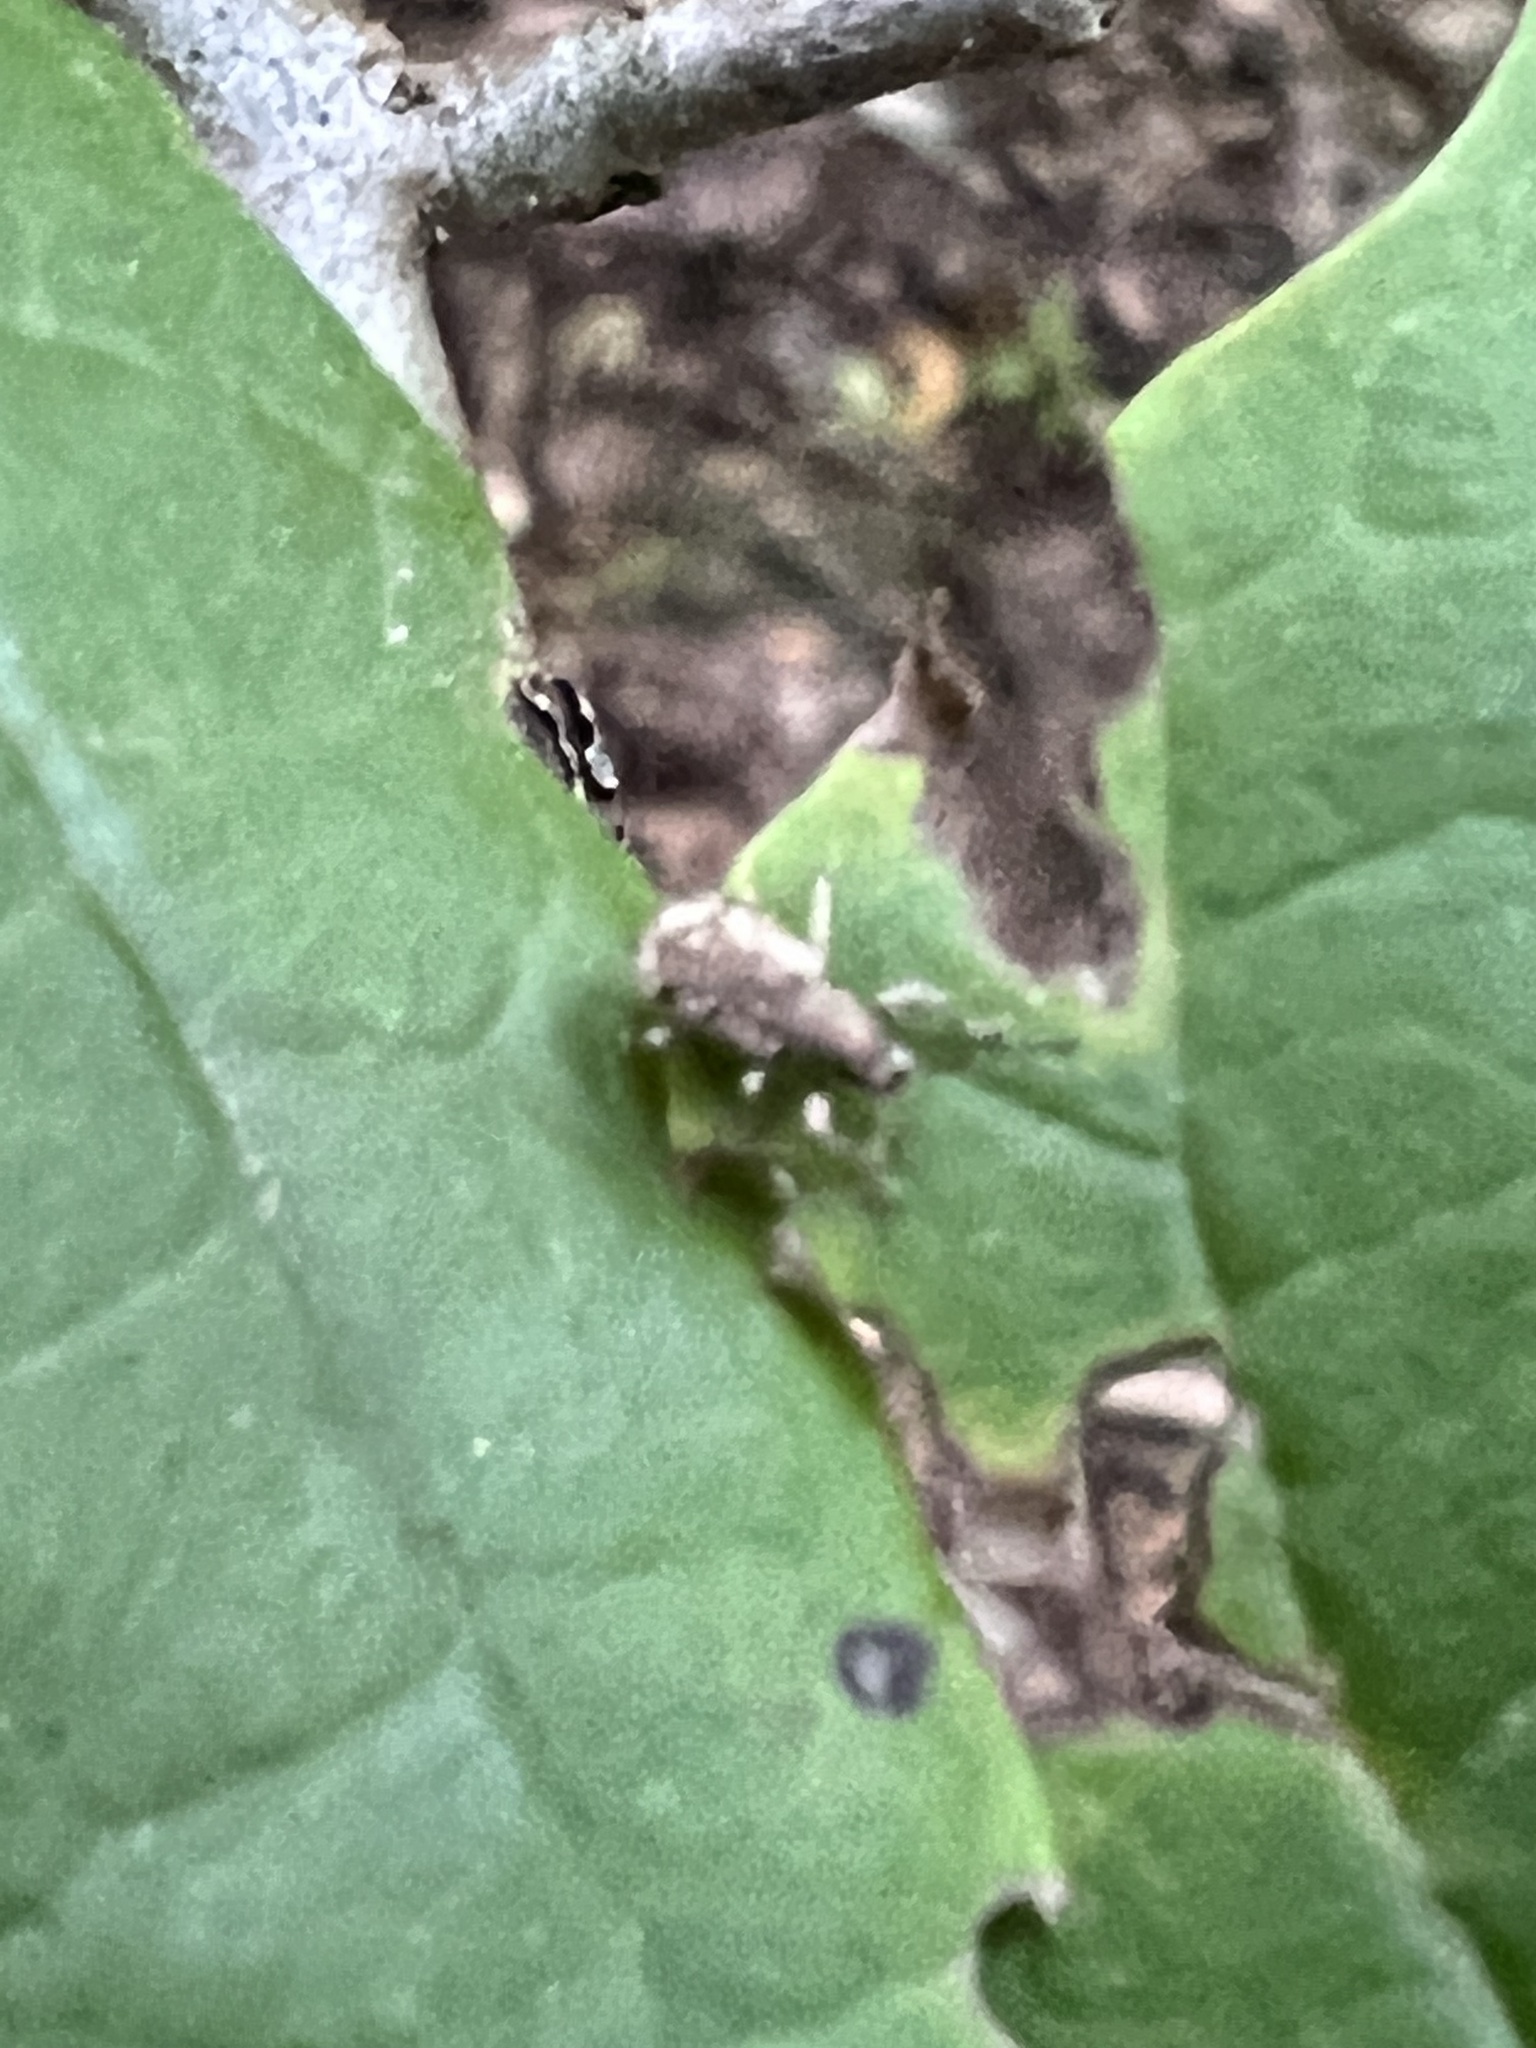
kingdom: Animalia
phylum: Arthropoda
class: Insecta
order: Coleoptera
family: Curculionidae
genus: Pseudoedophrys
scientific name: Pseudoedophrys hilleri
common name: Weevil
